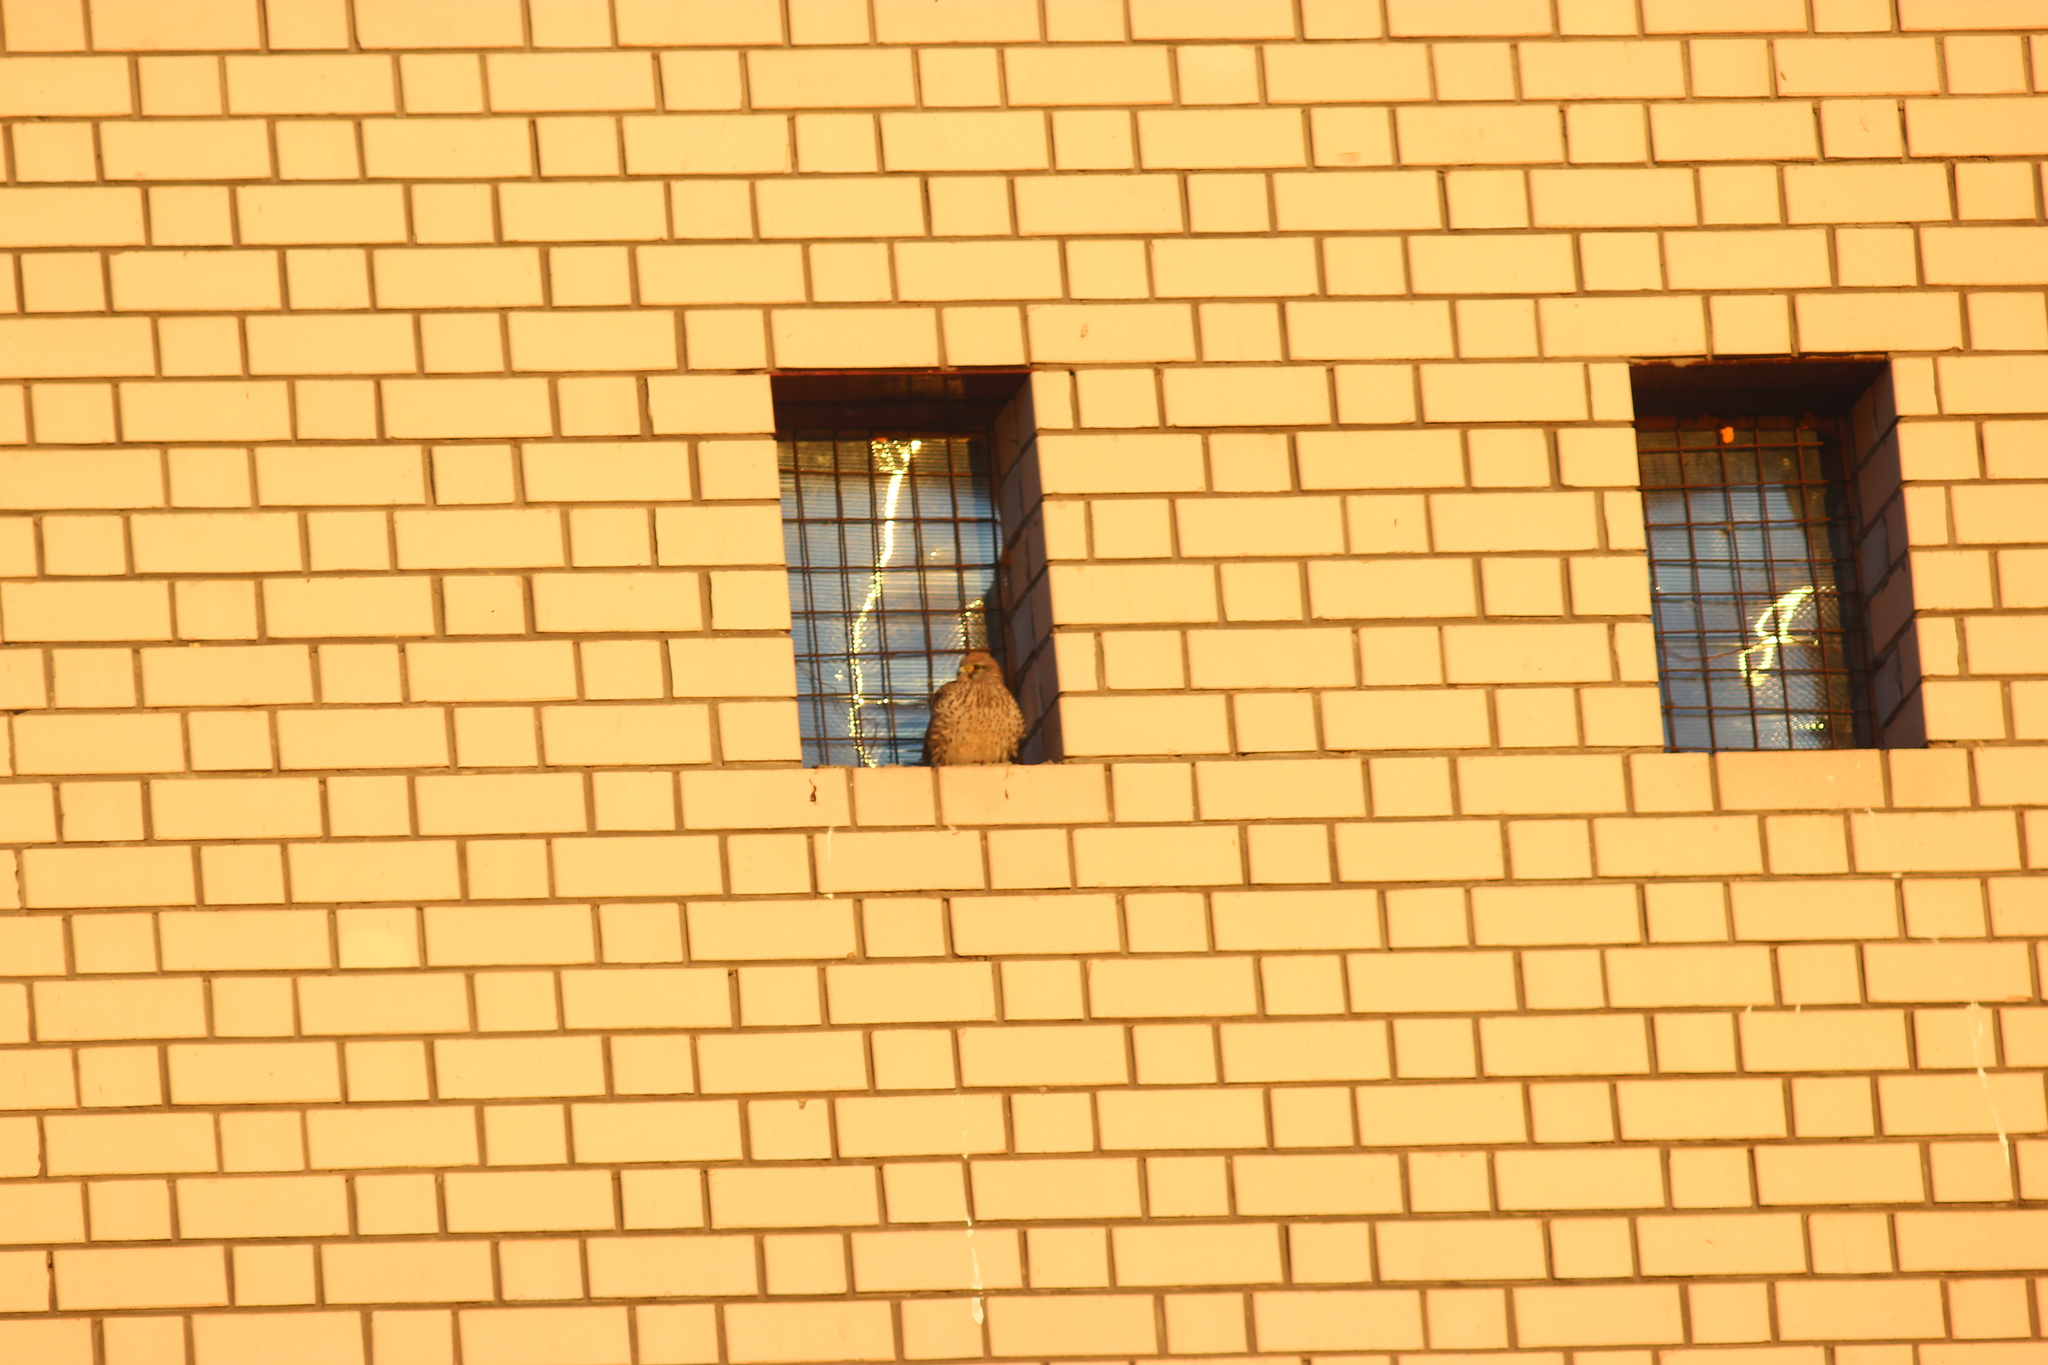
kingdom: Animalia
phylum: Chordata
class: Aves
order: Falconiformes
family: Falconidae
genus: Falco
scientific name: Falco tinnunculus
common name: Common kestrel
